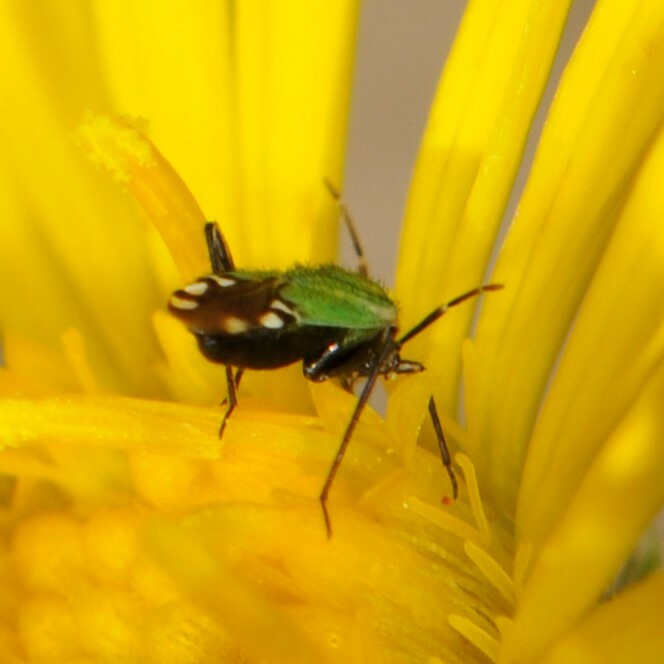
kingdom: Animalia
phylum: Arthropoda
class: Insecta
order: Hemiptera
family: Miridae
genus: Macrotylus
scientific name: Macrotylus amoenus
